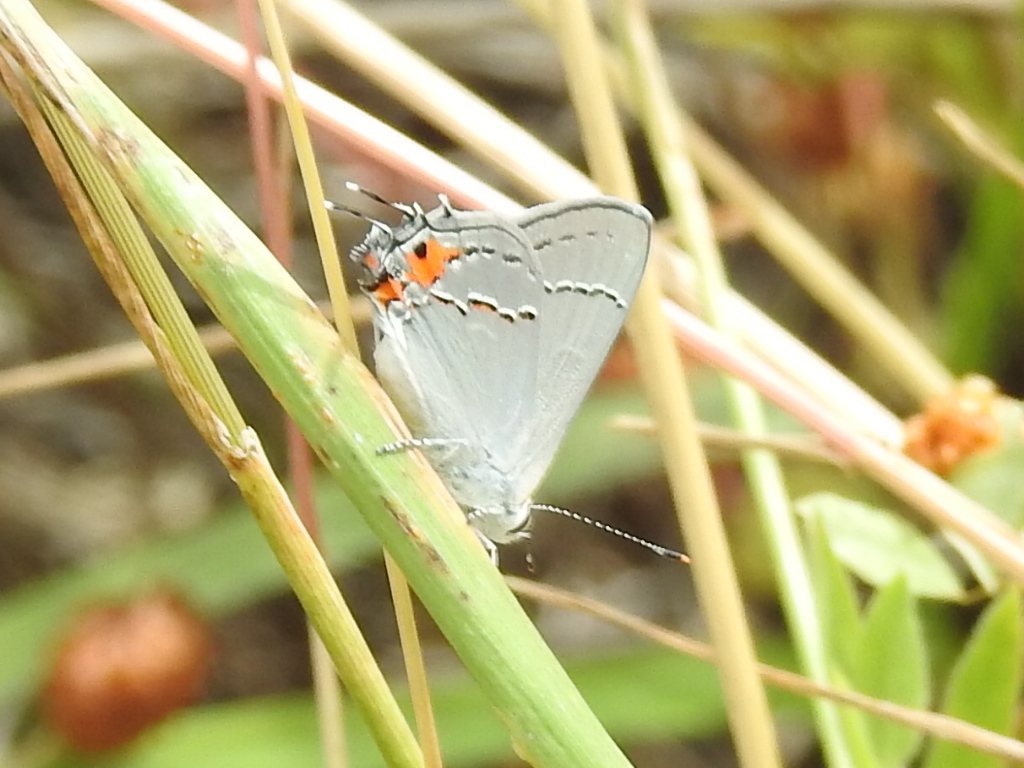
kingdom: Animalia
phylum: Arthropoda
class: Insecta
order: Lepidoptera
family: Lycaenidae
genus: Strymon
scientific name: Strymon melinus
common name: Gray hairstreak
